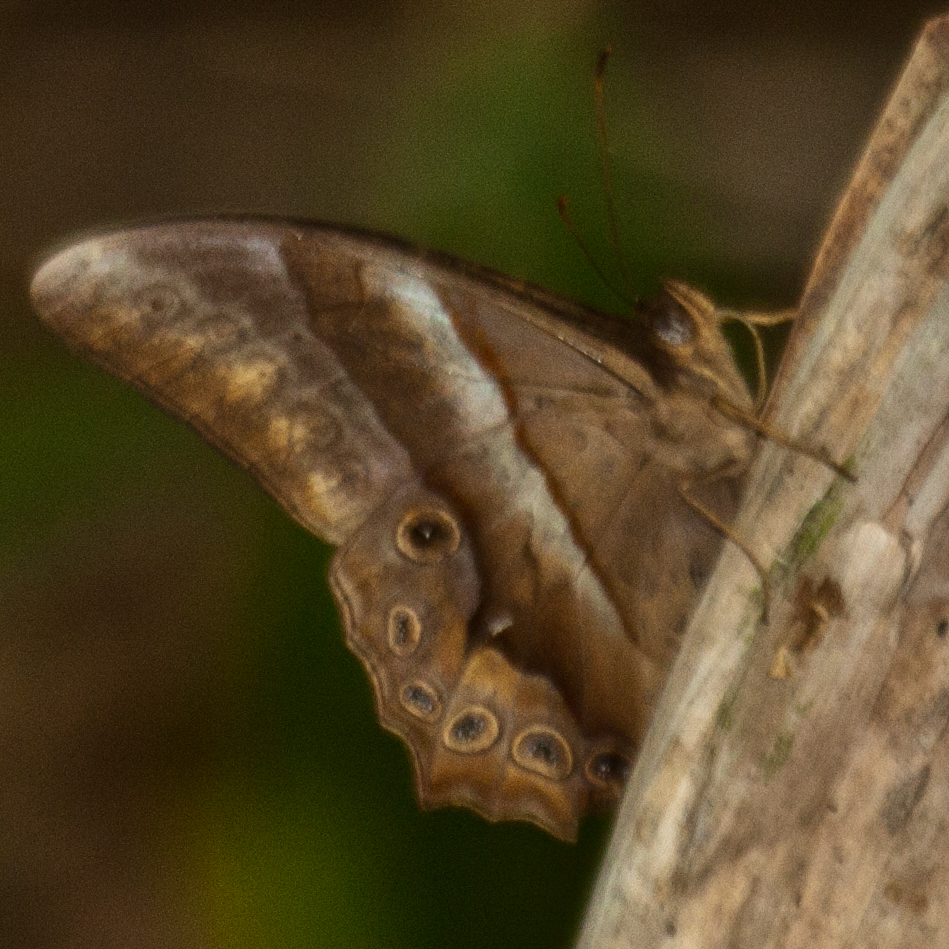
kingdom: Animalia
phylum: Arthropoda
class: Insecta
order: Lepidoptera
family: Nymphalidae
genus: Lethe
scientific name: Lethe mekara
